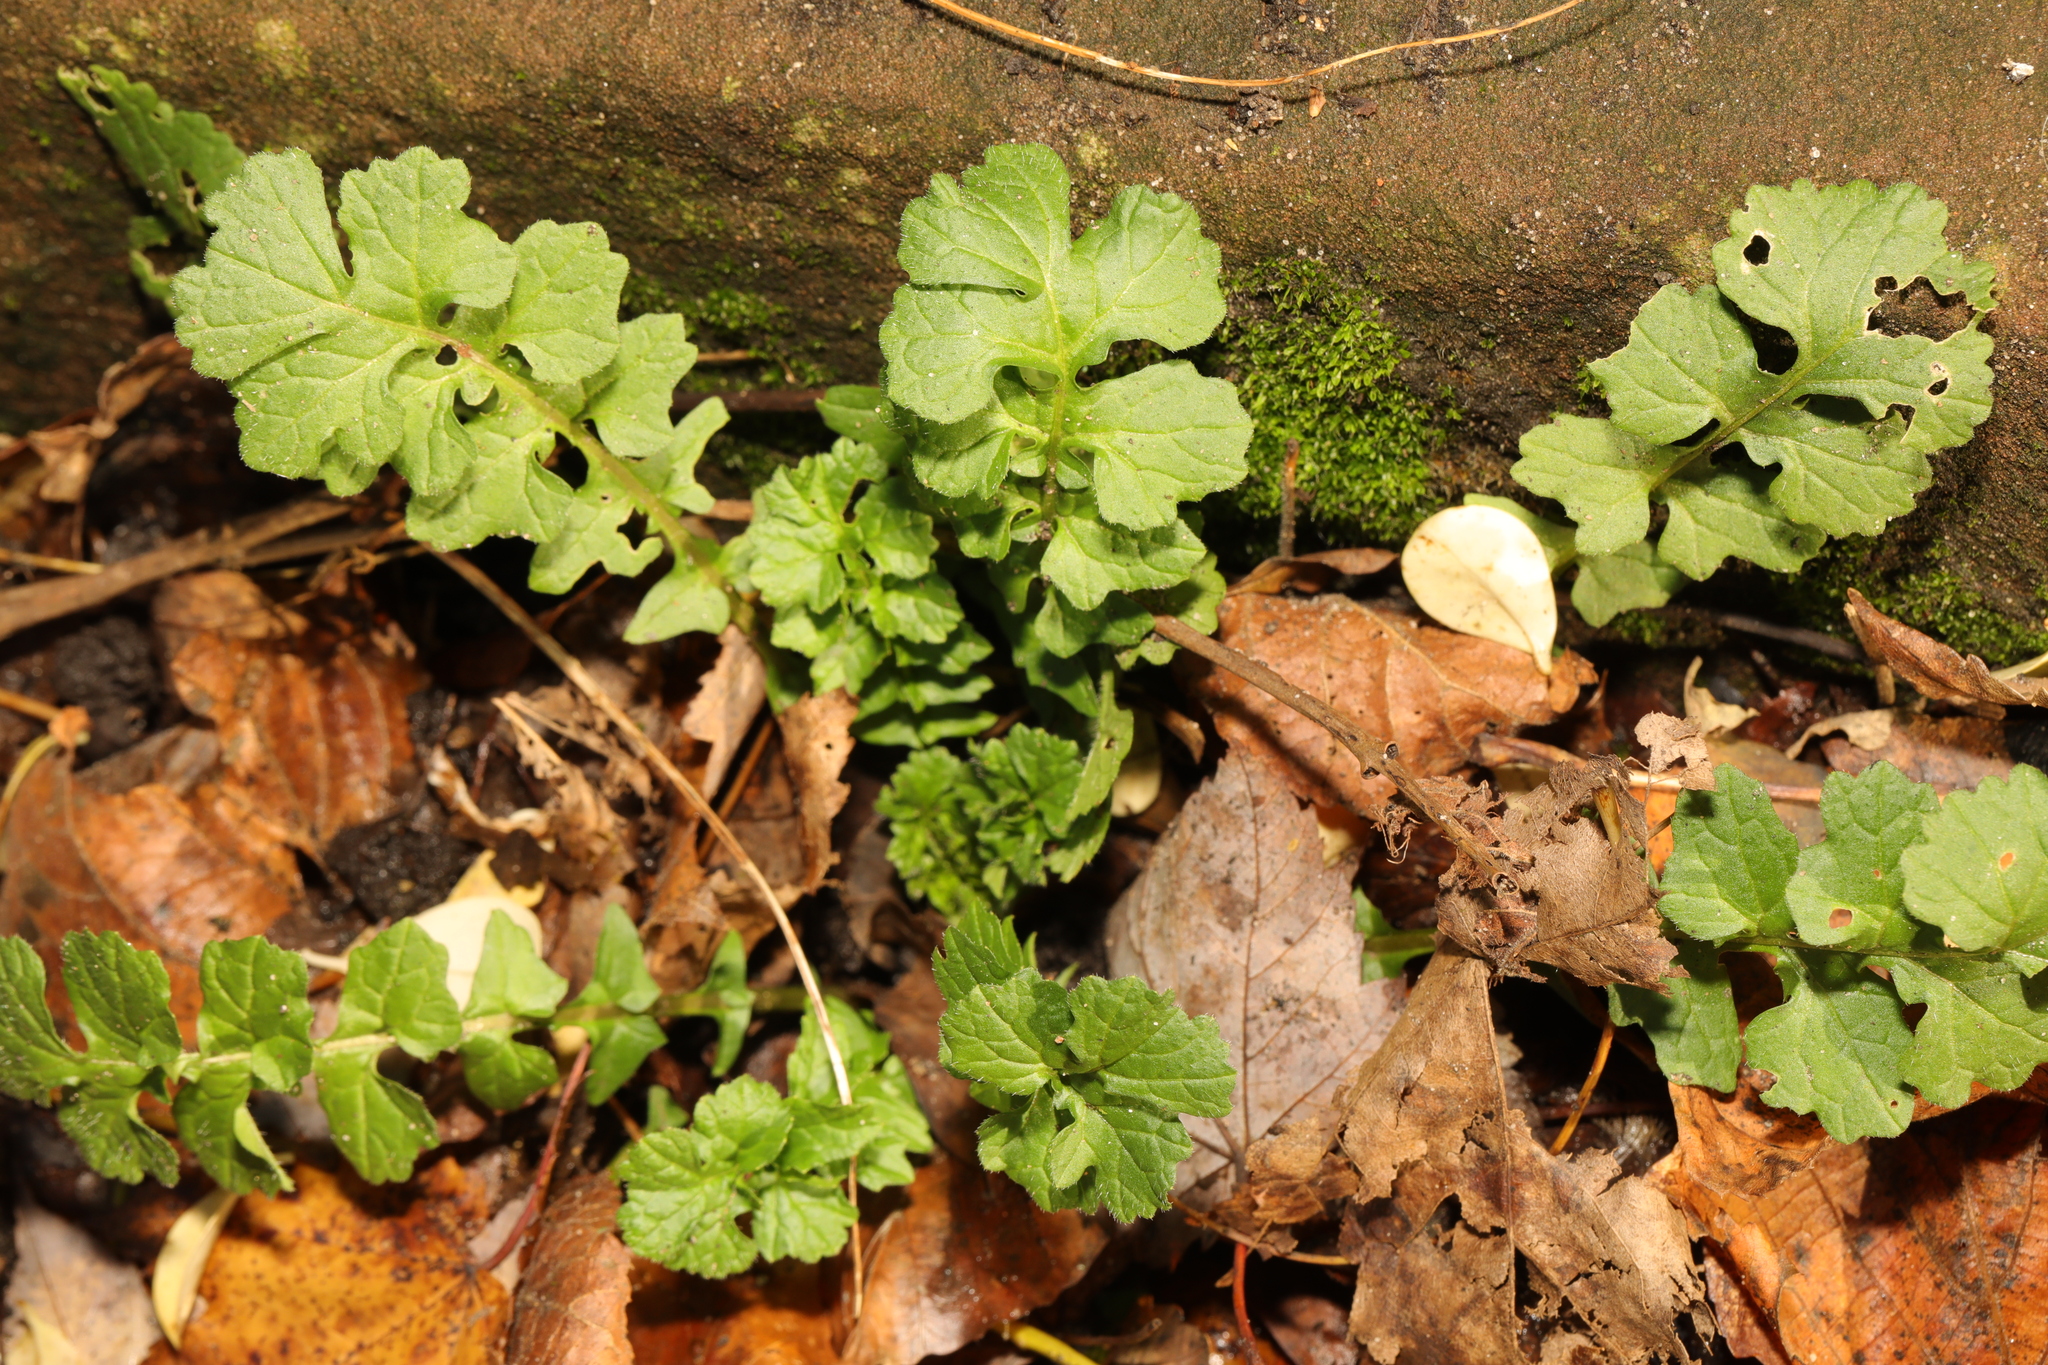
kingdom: Plantae
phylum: Tracheophyta
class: Magnoliopsida
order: Brassicales
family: Brassicaceae
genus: Sisymbrium
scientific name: Sisymbrium officinale
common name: Hedge mustard
